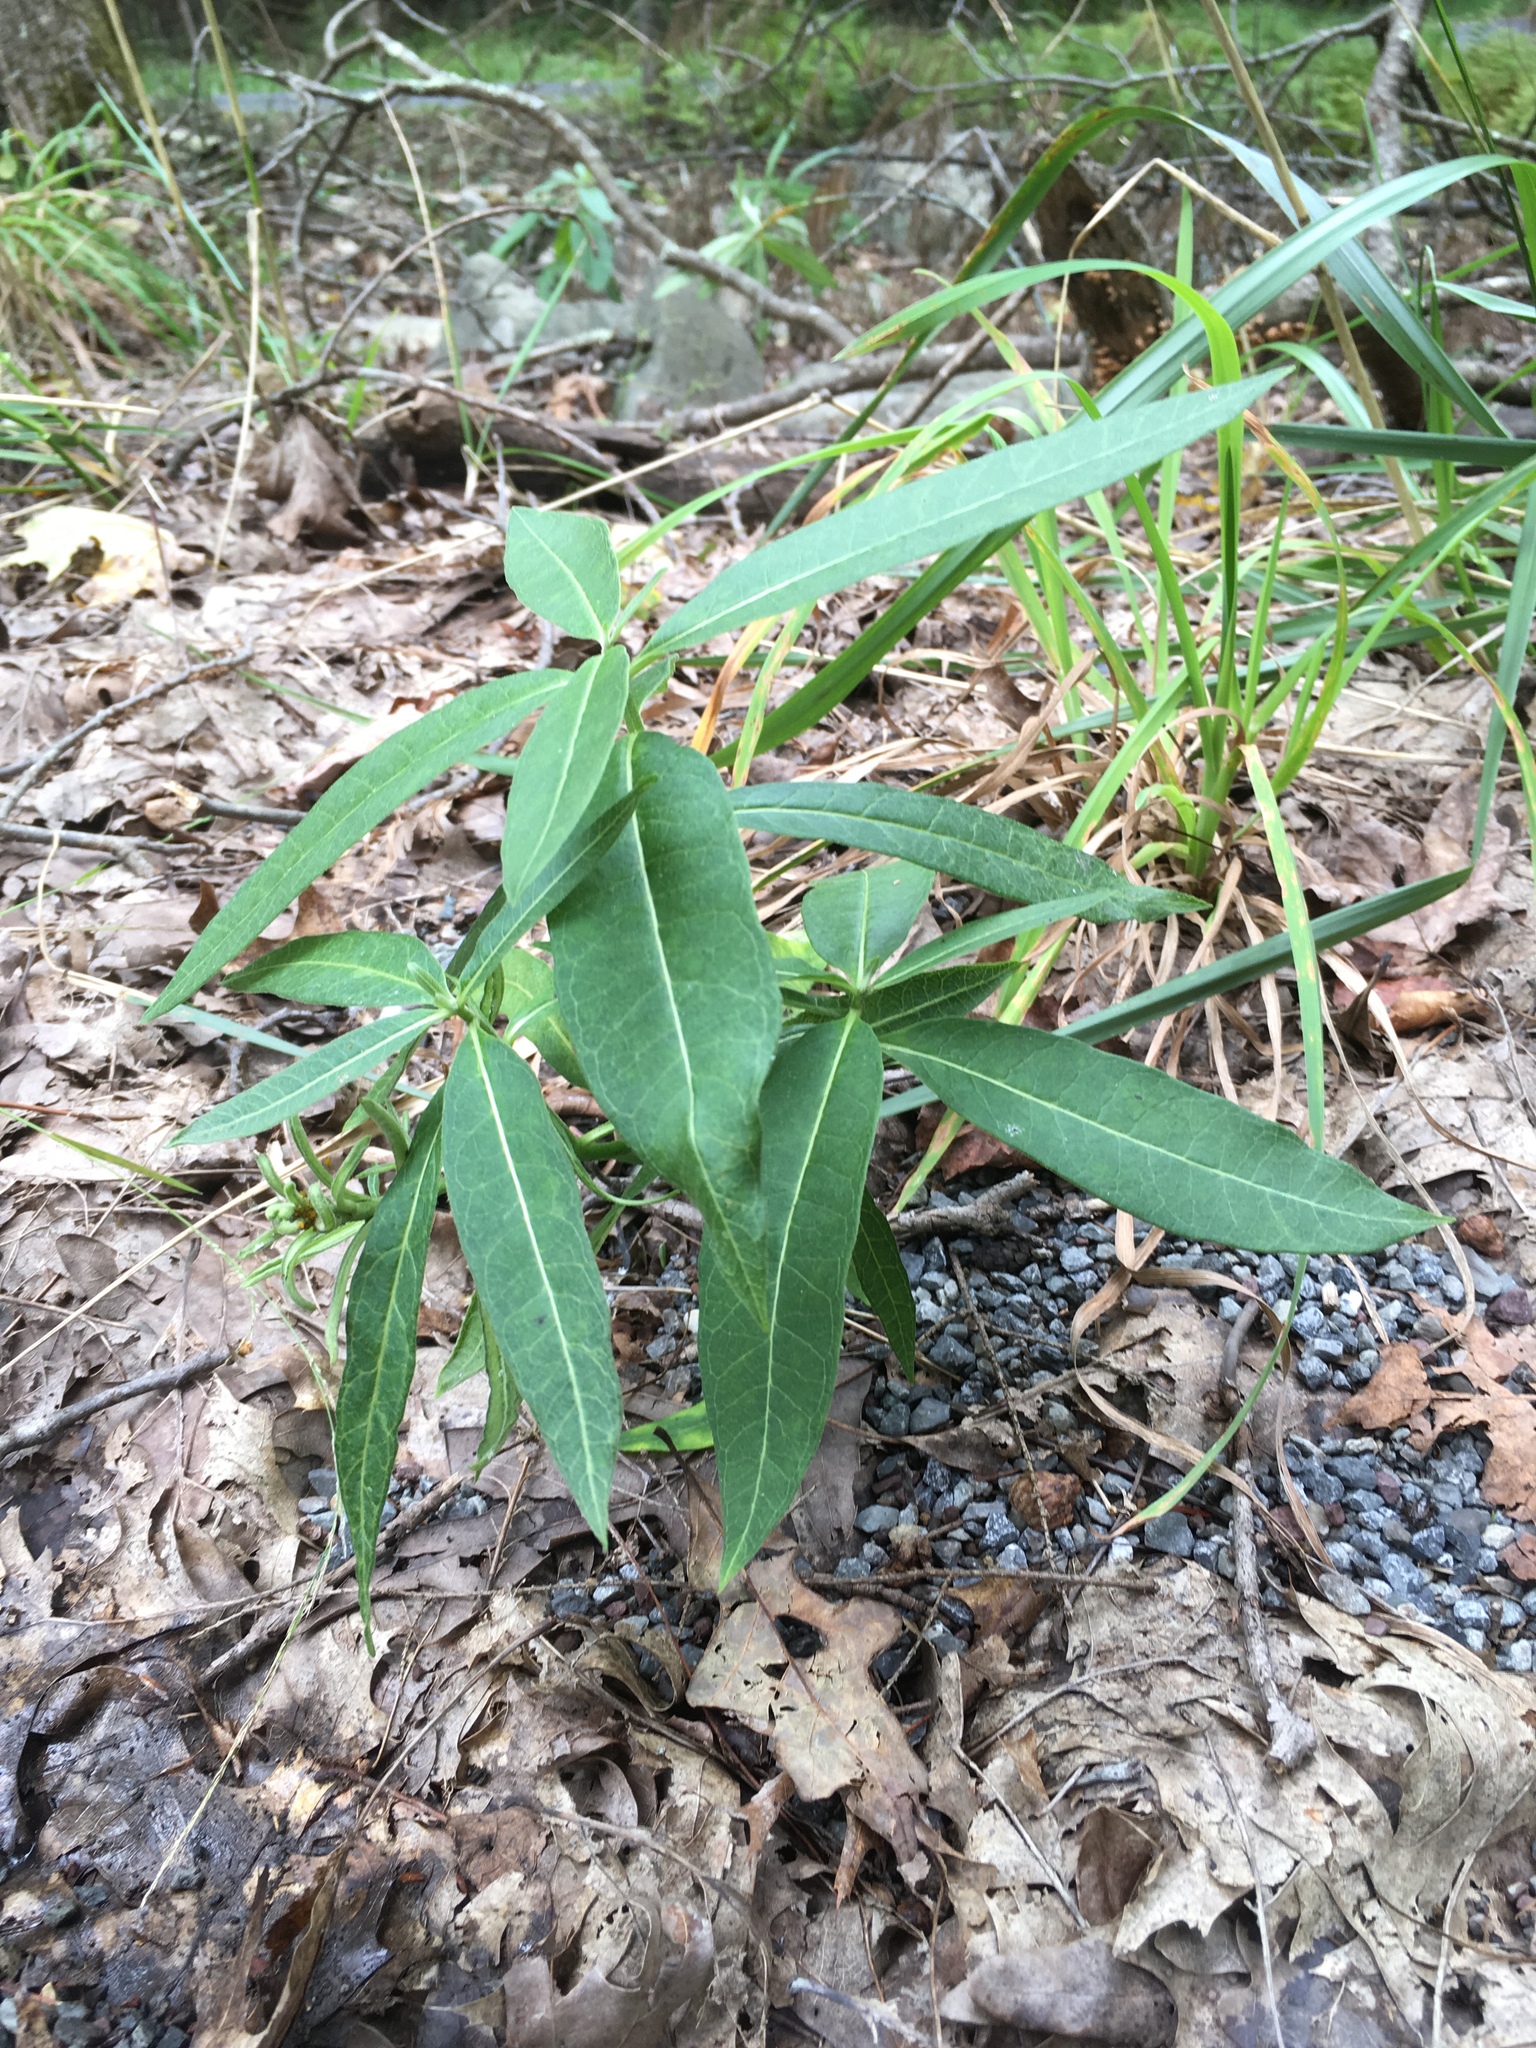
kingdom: Plantae
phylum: Tracheophyta
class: Magnoliopsida
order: Gentianales
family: Apocynaceae
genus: Asclepias
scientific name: Asclepias syriaca
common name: Common milkweed
